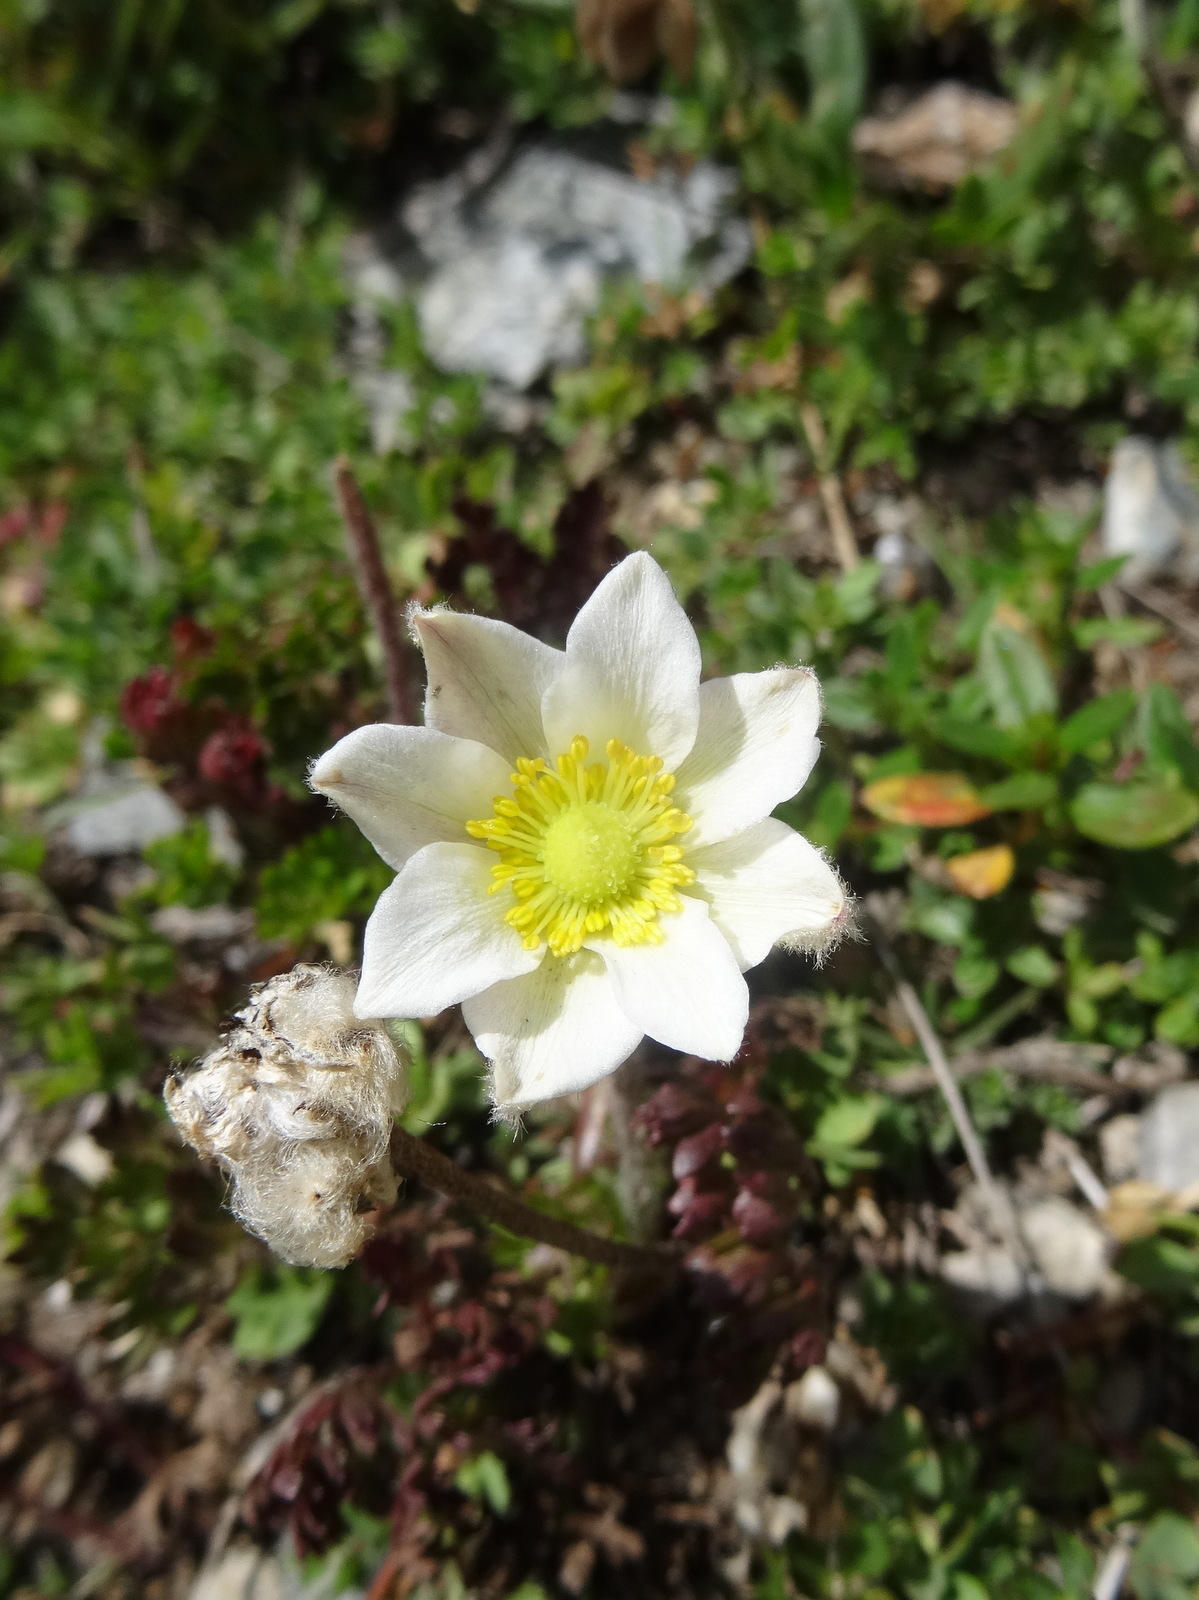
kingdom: Plantae
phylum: Tracheophyta
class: Magnoliopsida
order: Ranunculales
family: Ranunculaceae
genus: Anemone
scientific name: Anemone baldensis
